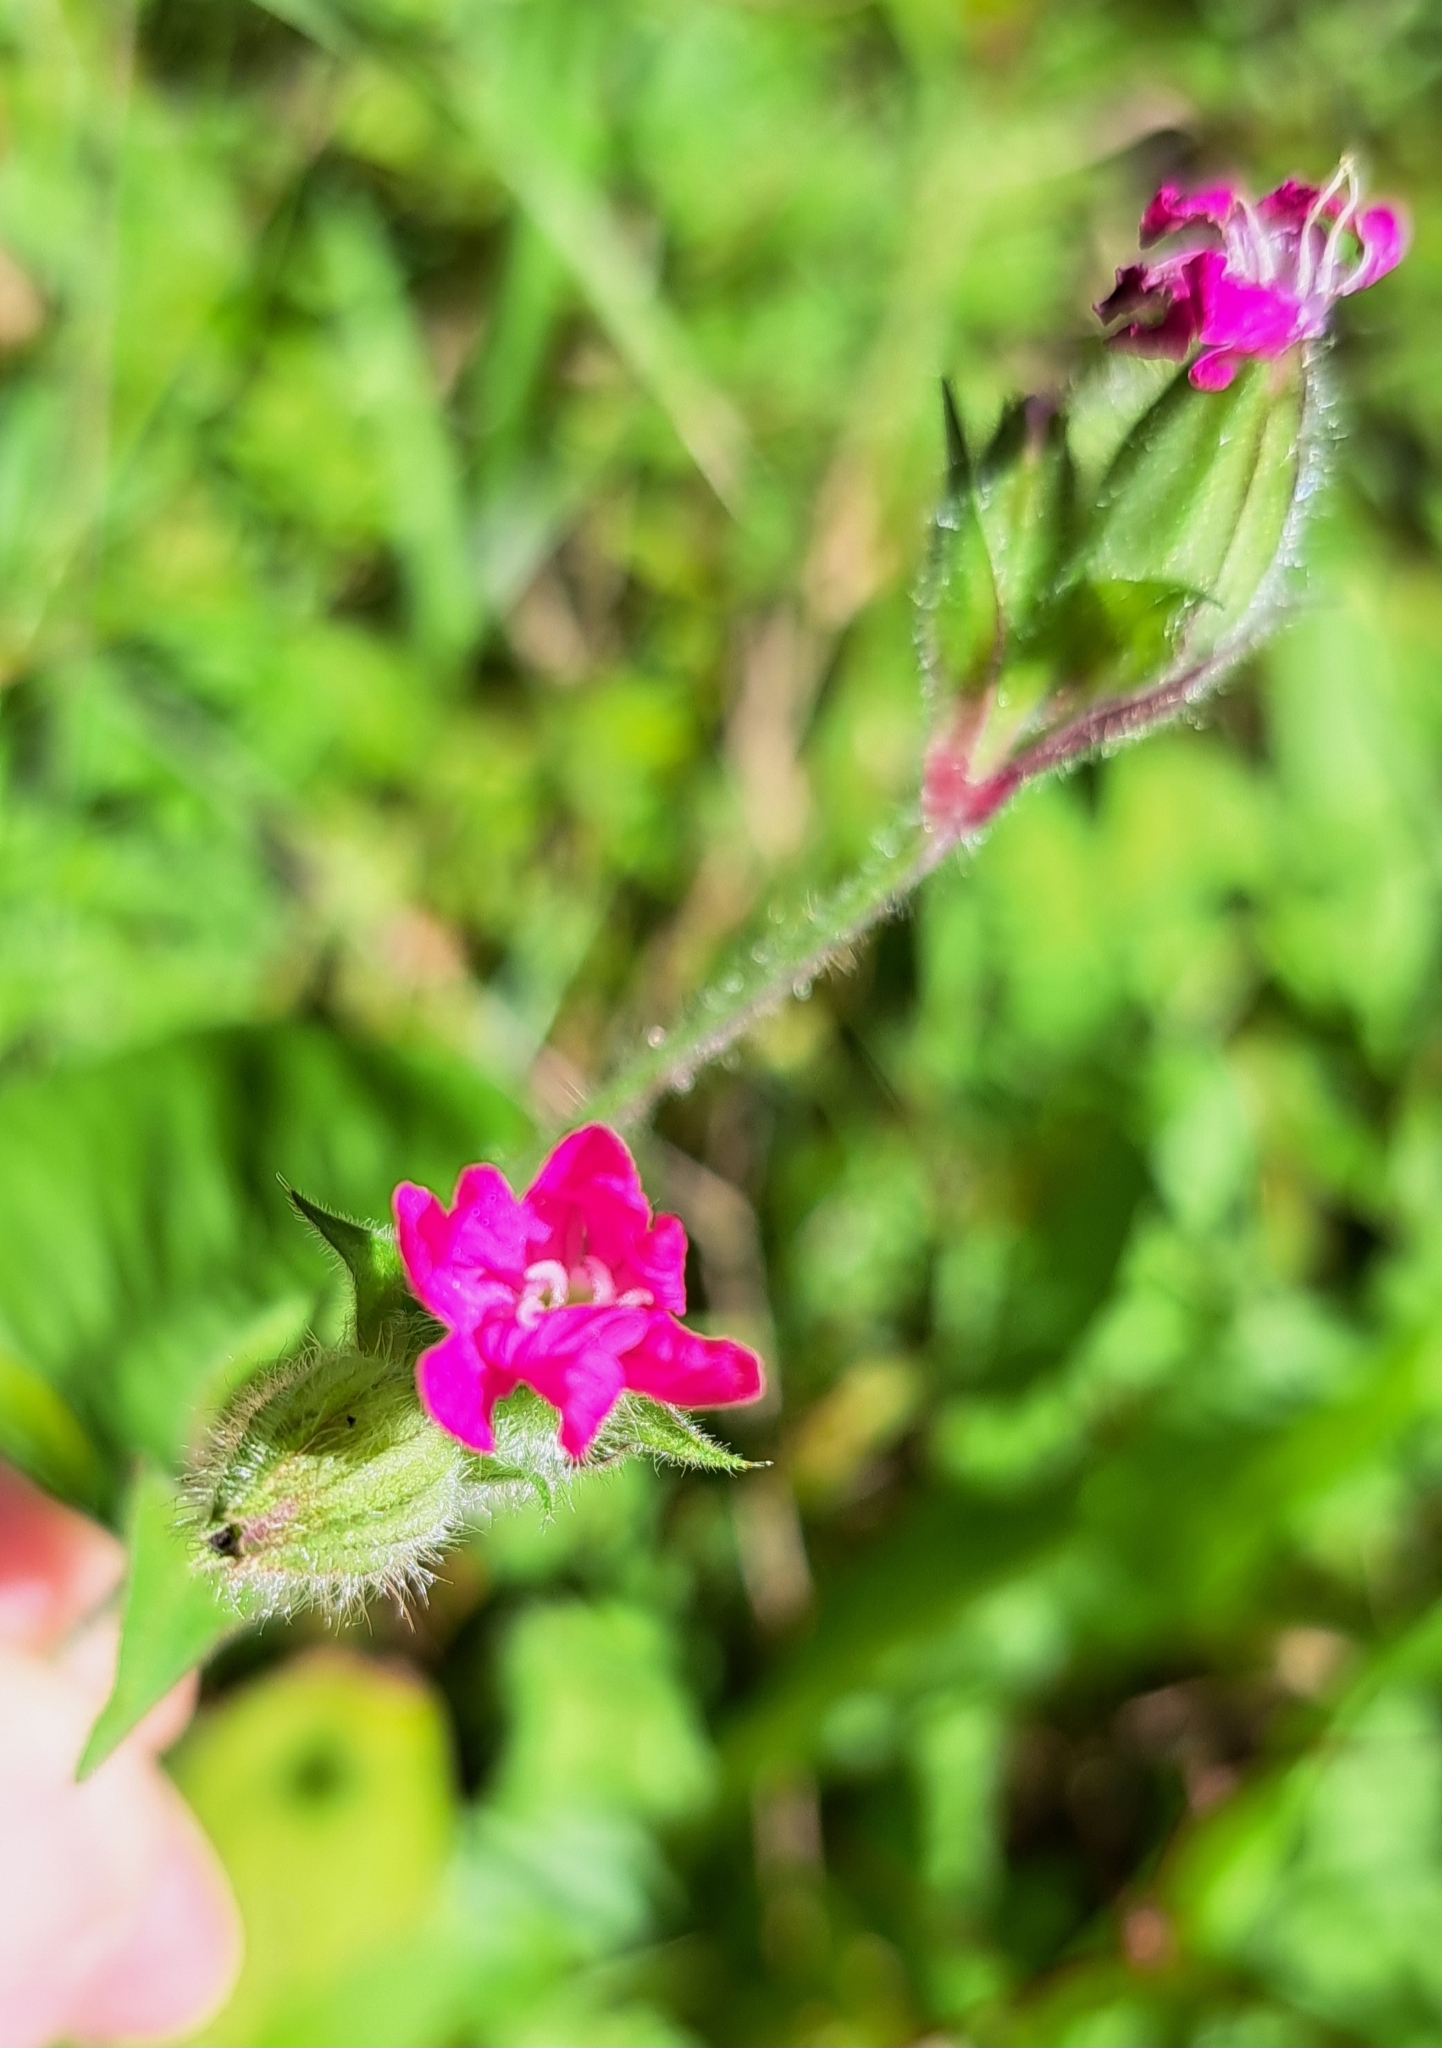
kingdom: Plantae
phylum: Tracheophyta
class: Magnoliopsida
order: Caryophyllales
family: Caryophyllaceae
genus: Silene
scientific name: Silene dioica
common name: Red campion
